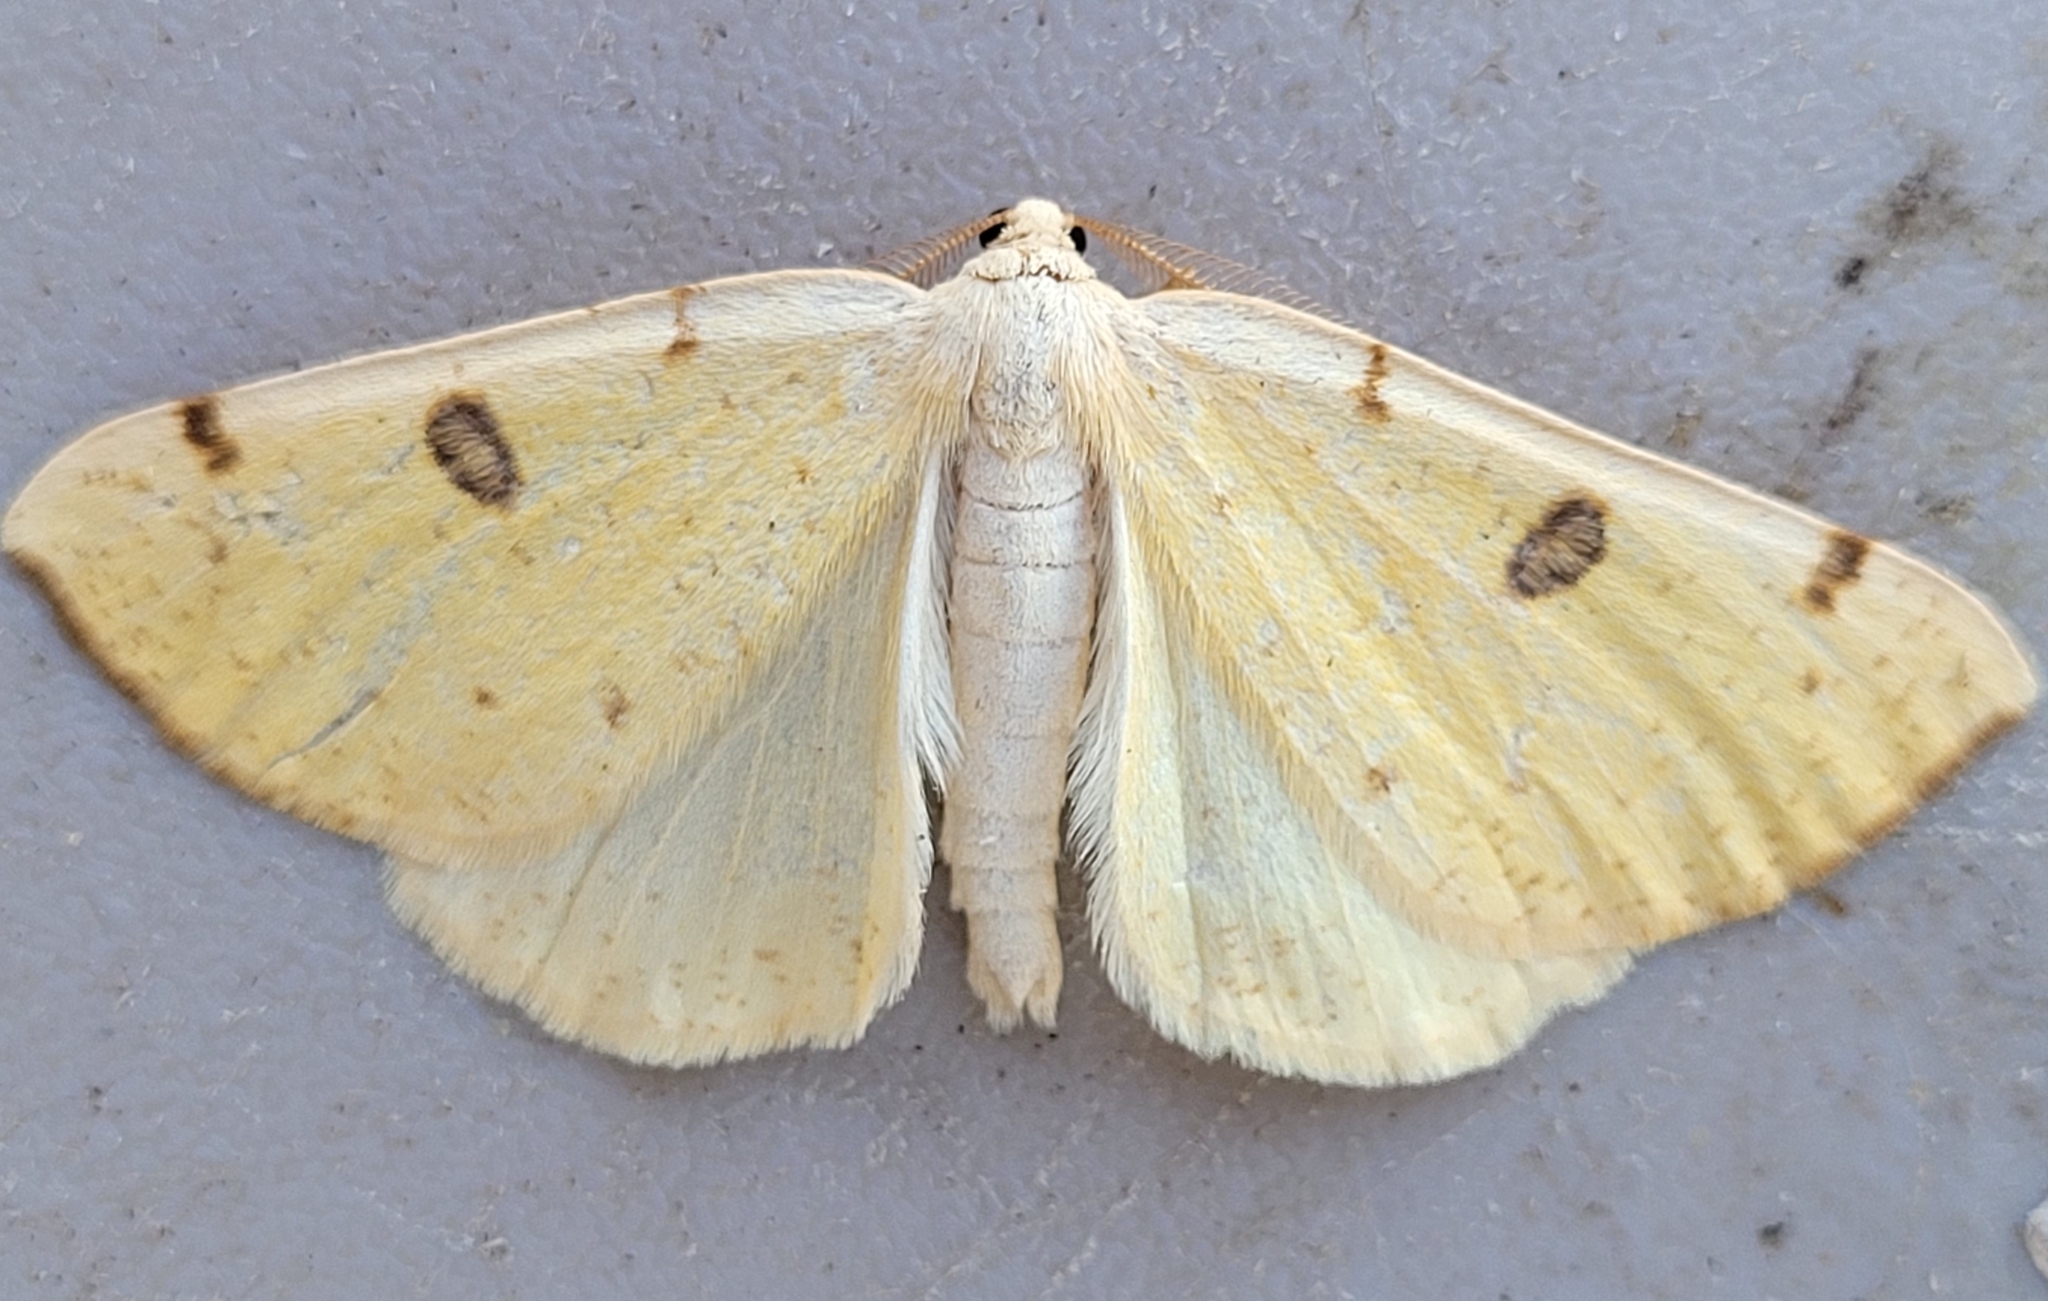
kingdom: Animalia
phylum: Arthropoda
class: Insecta
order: Lepidoptera
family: Geometridae
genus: Hesperumia
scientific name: Hesperumia sulphuraria
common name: Sulphur moth
